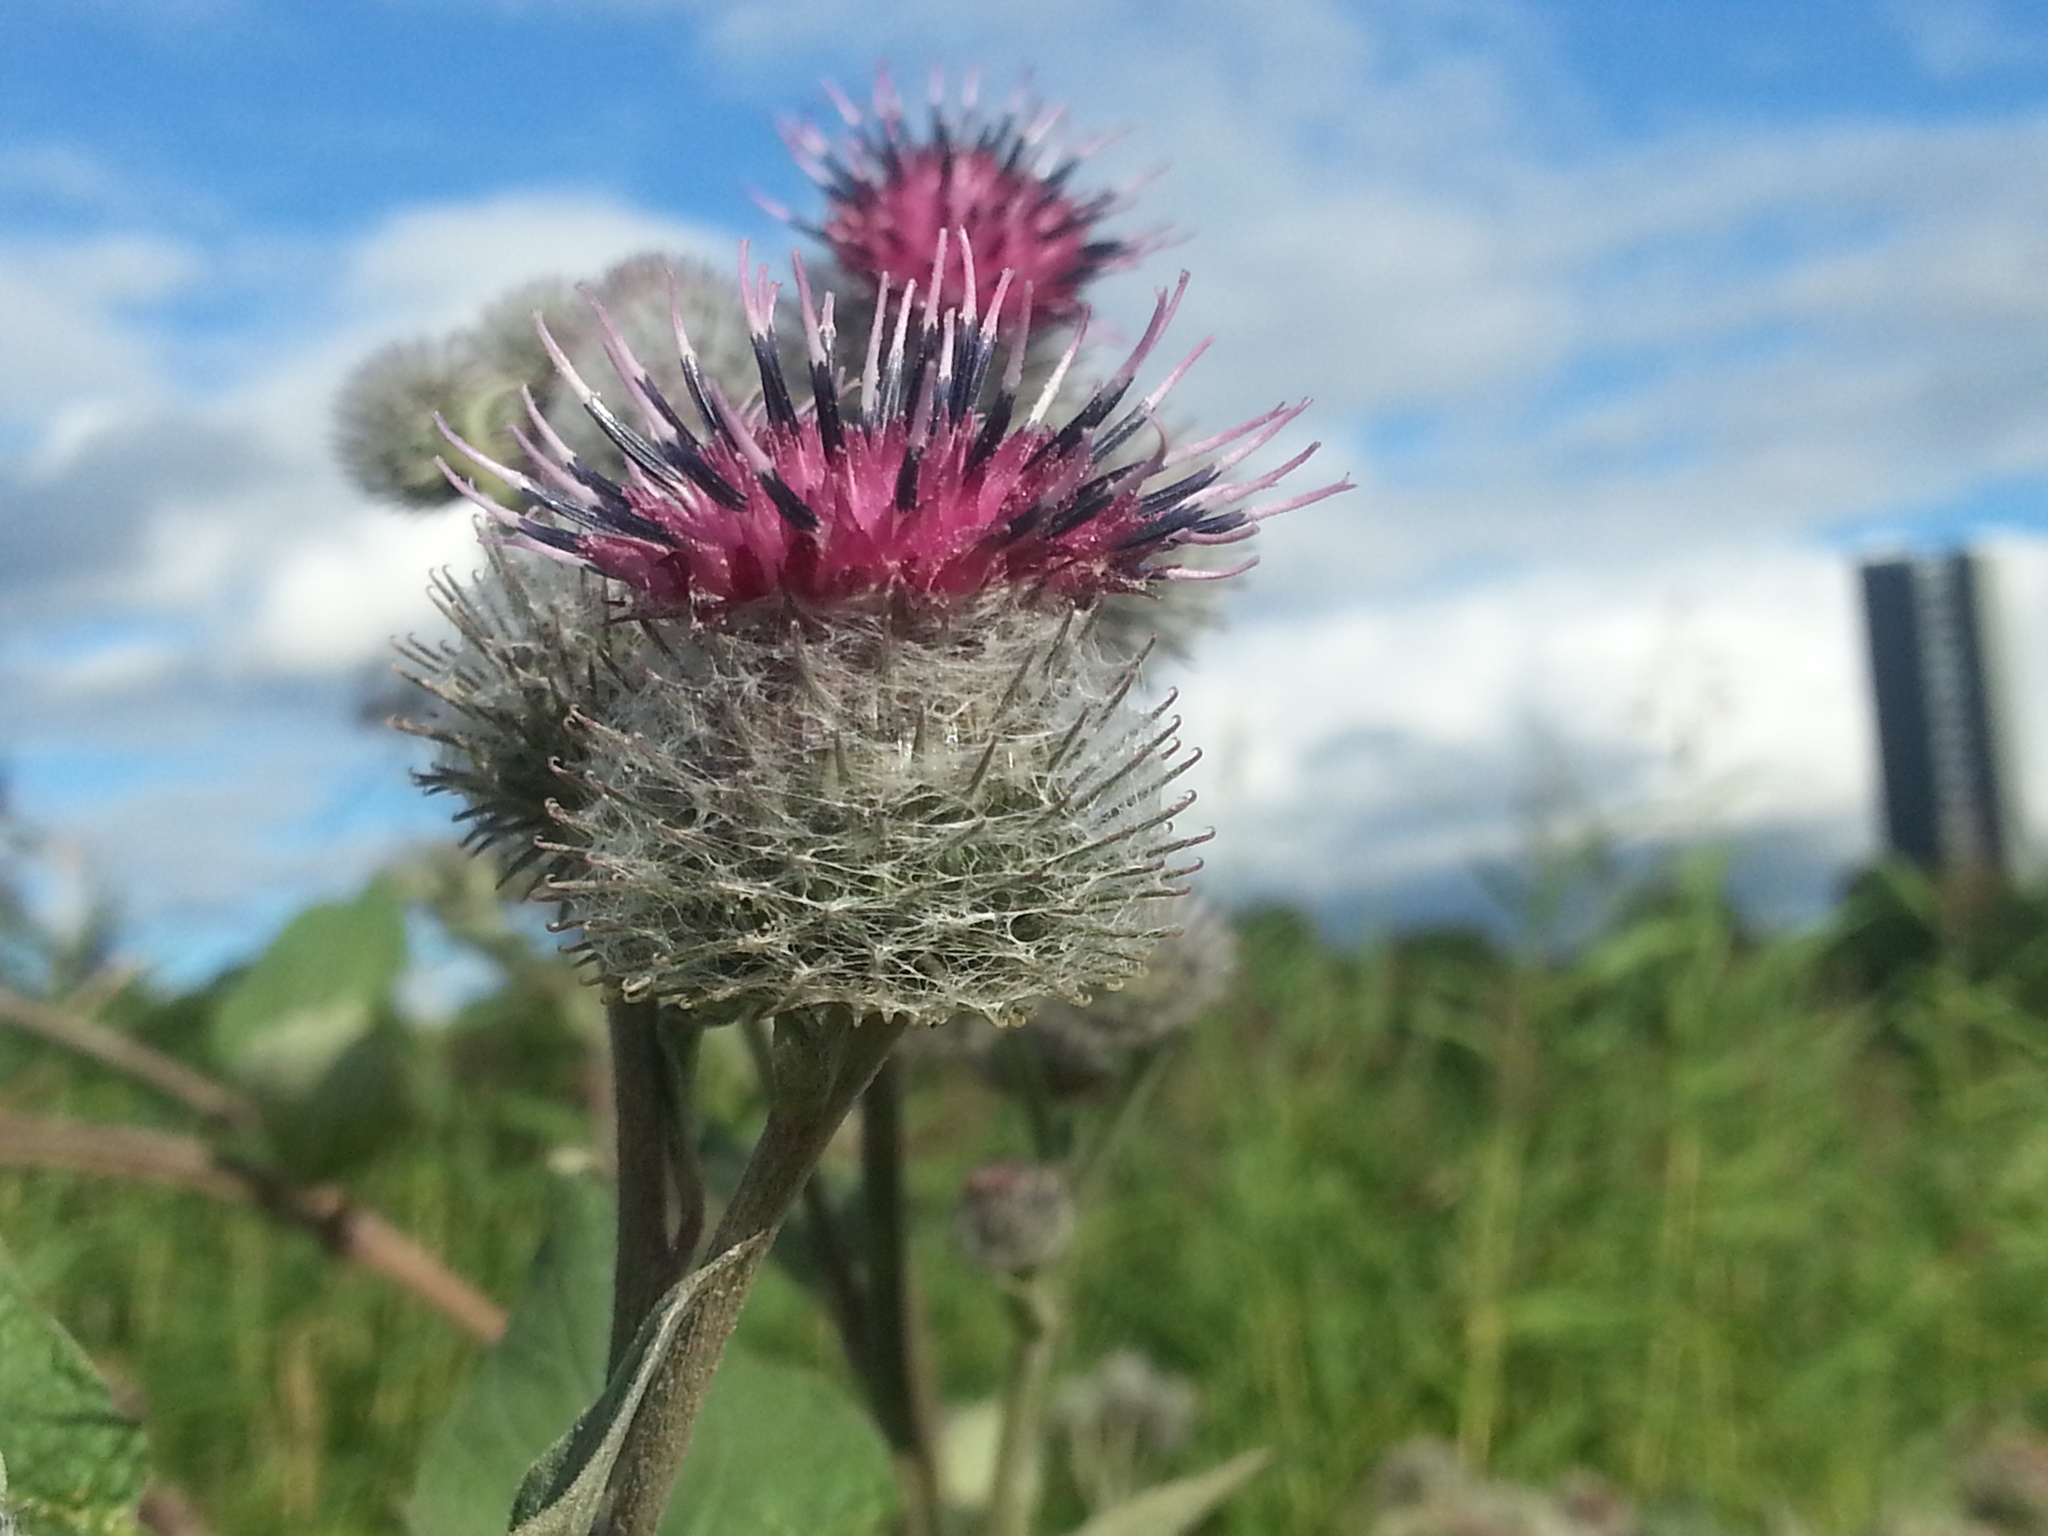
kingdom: Plantae
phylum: Tracheophyta
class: Magnoliopsida
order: Asterales
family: Asteraceae
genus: Arctium
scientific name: Arctium tomentosum
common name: Woolly burdock
